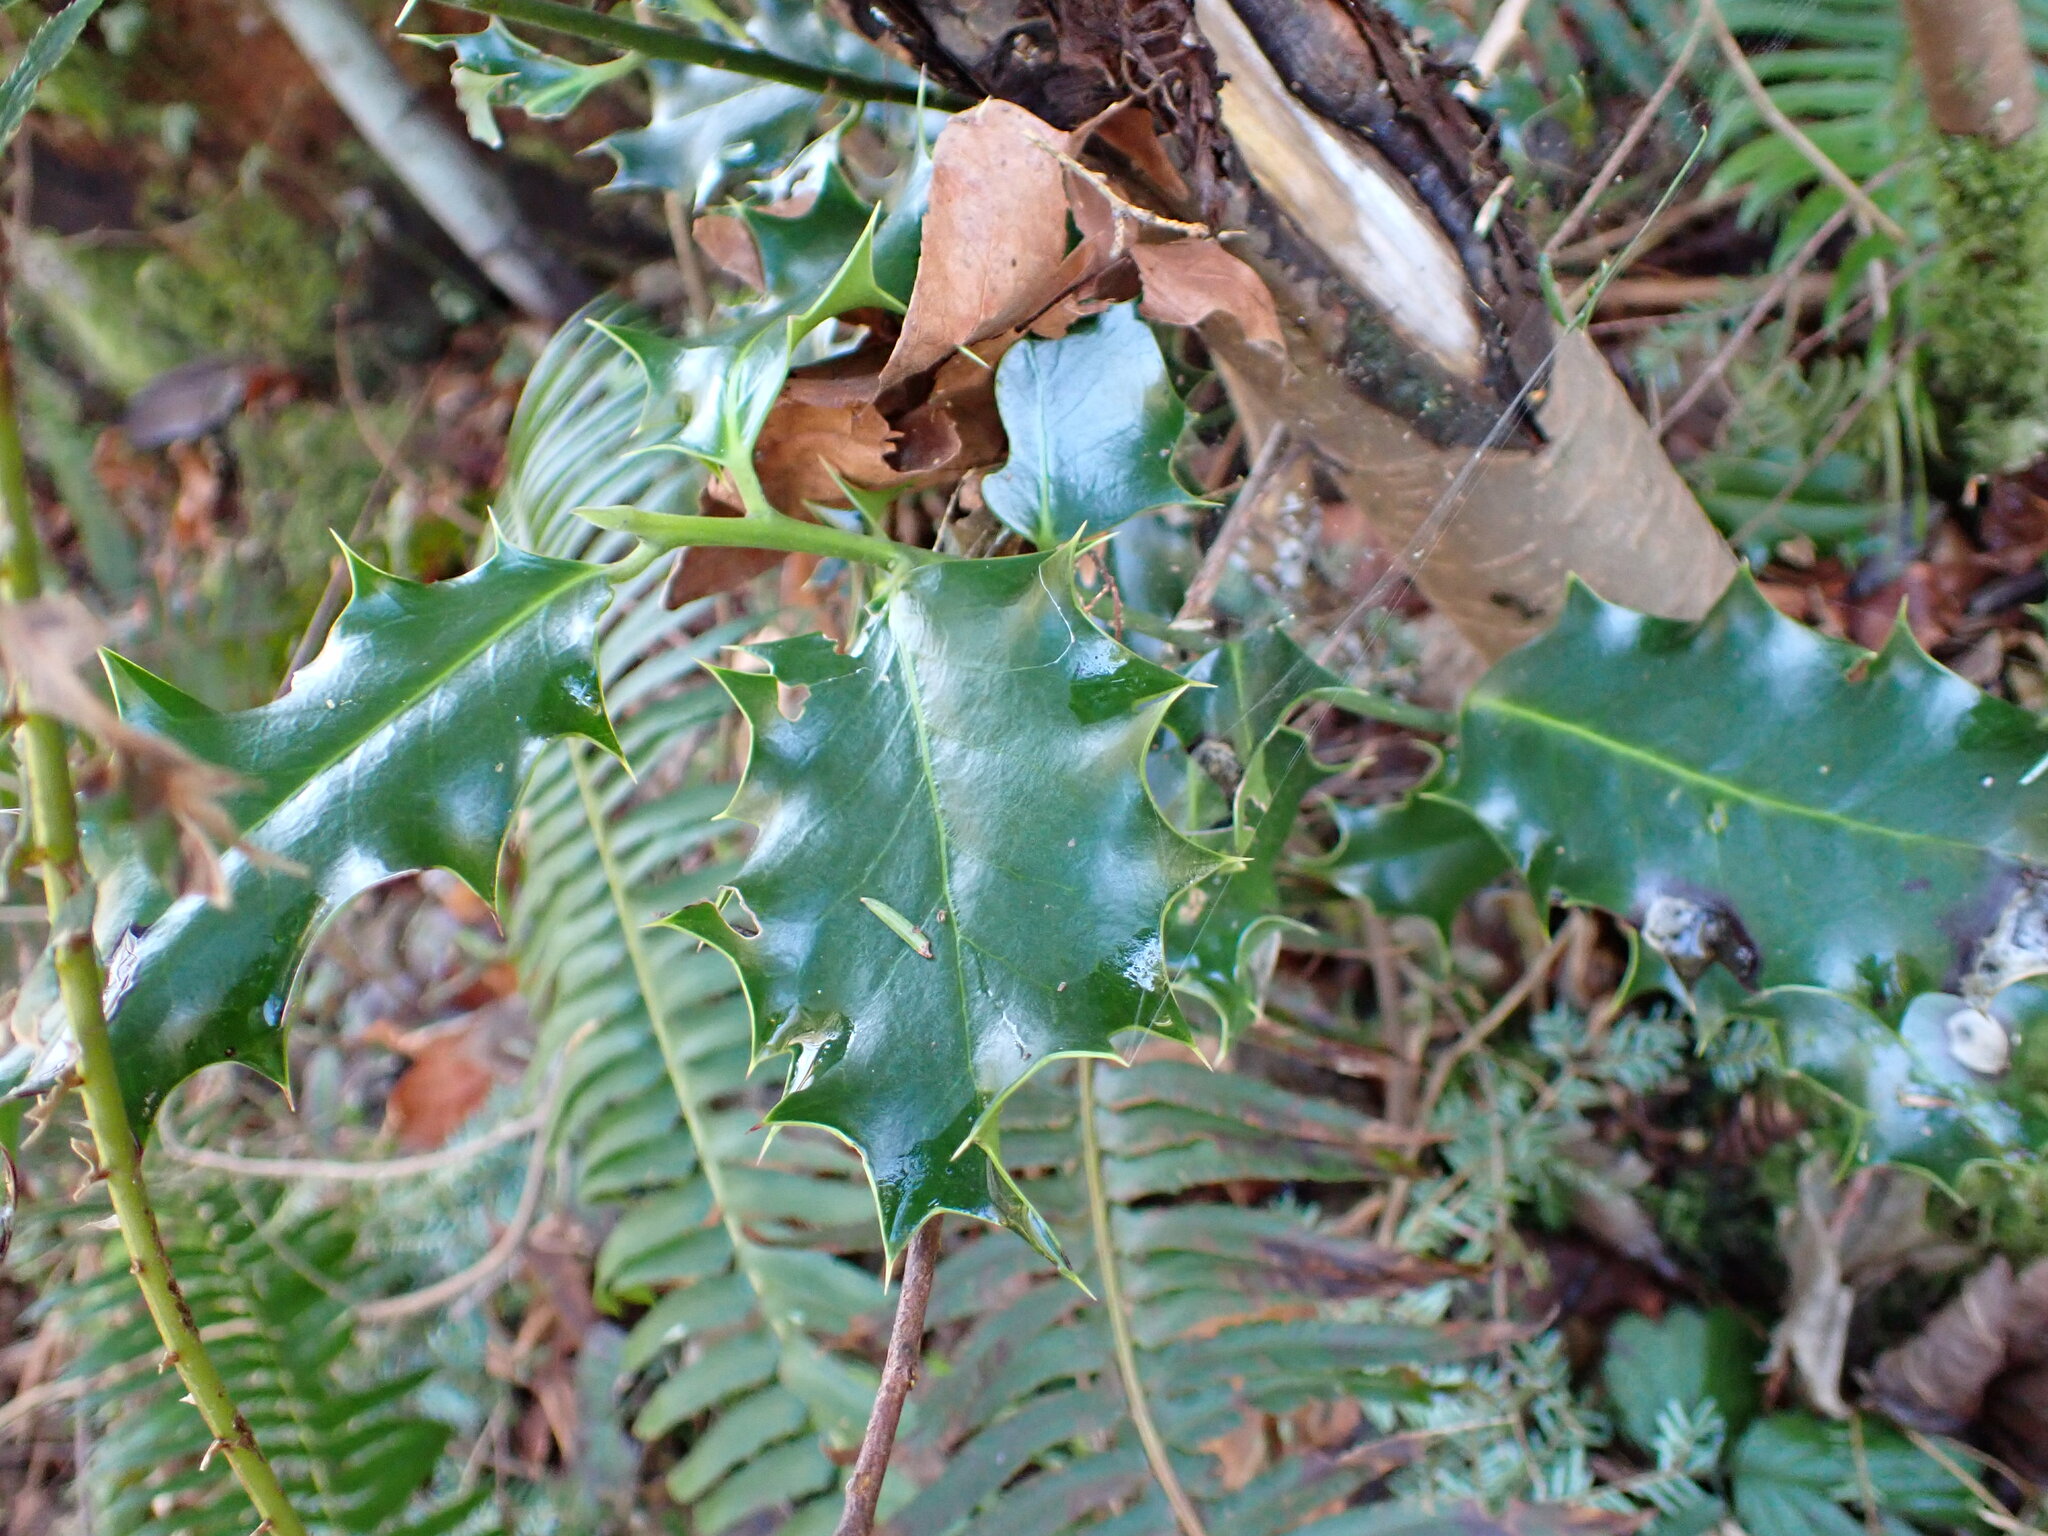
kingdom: Plantae
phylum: Tracheophyta
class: Magnoliopsida
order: Aquifoliales
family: Aquifoliaceae
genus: Ilex
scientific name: Ilex aquifolium
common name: English holly
